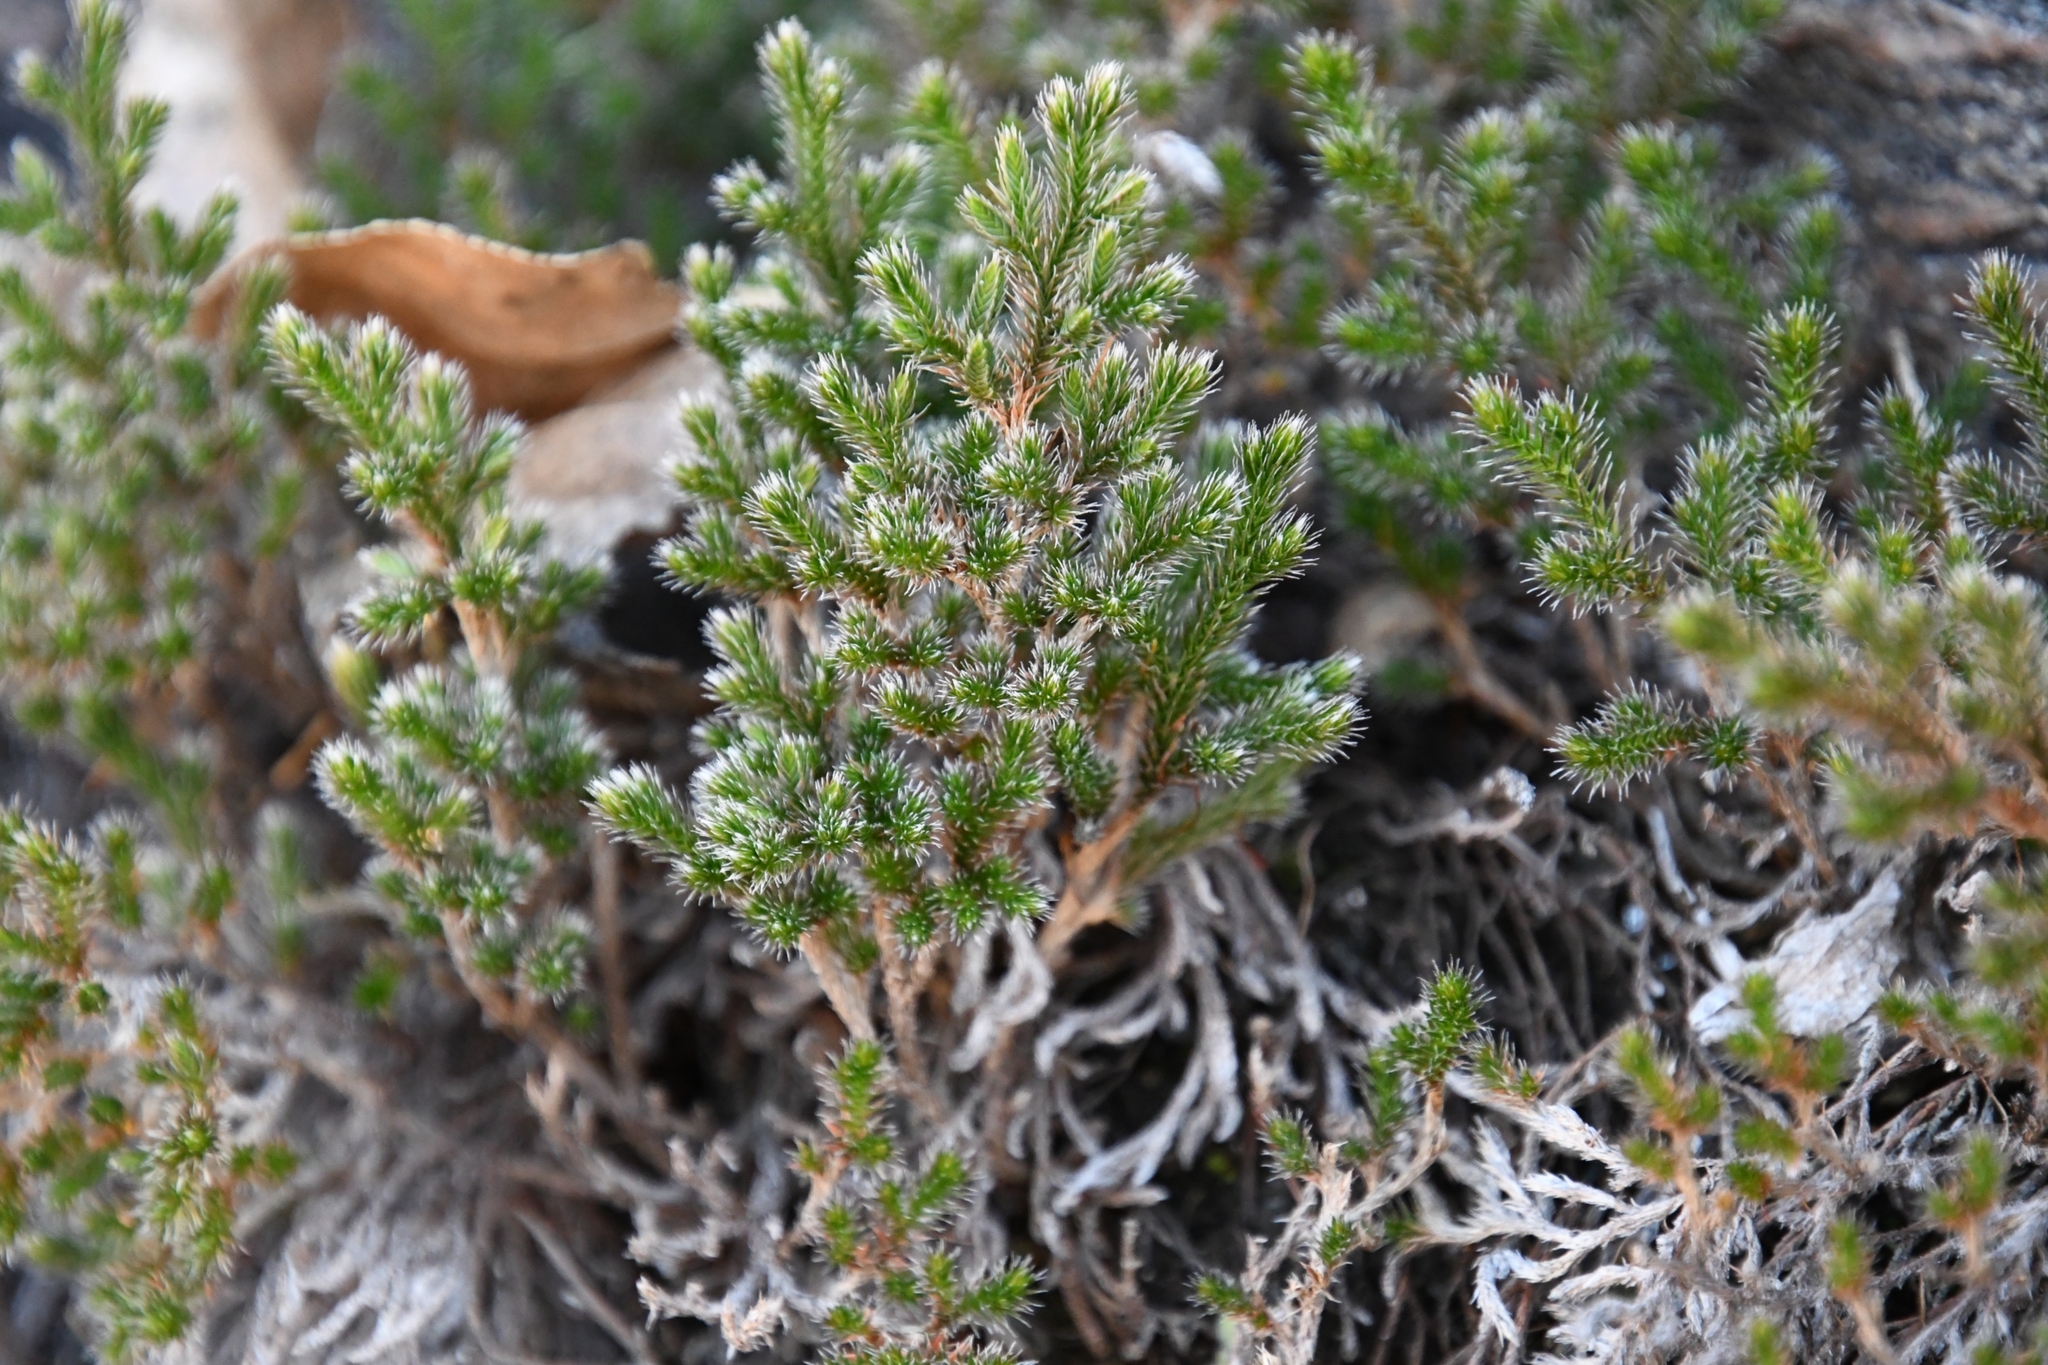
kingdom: Plantae
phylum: Tracheophyta
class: Lycopodiopsida
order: Selaginellales
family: Selaginellaceae
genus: Selaginella
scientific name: Selaginella rupincola
